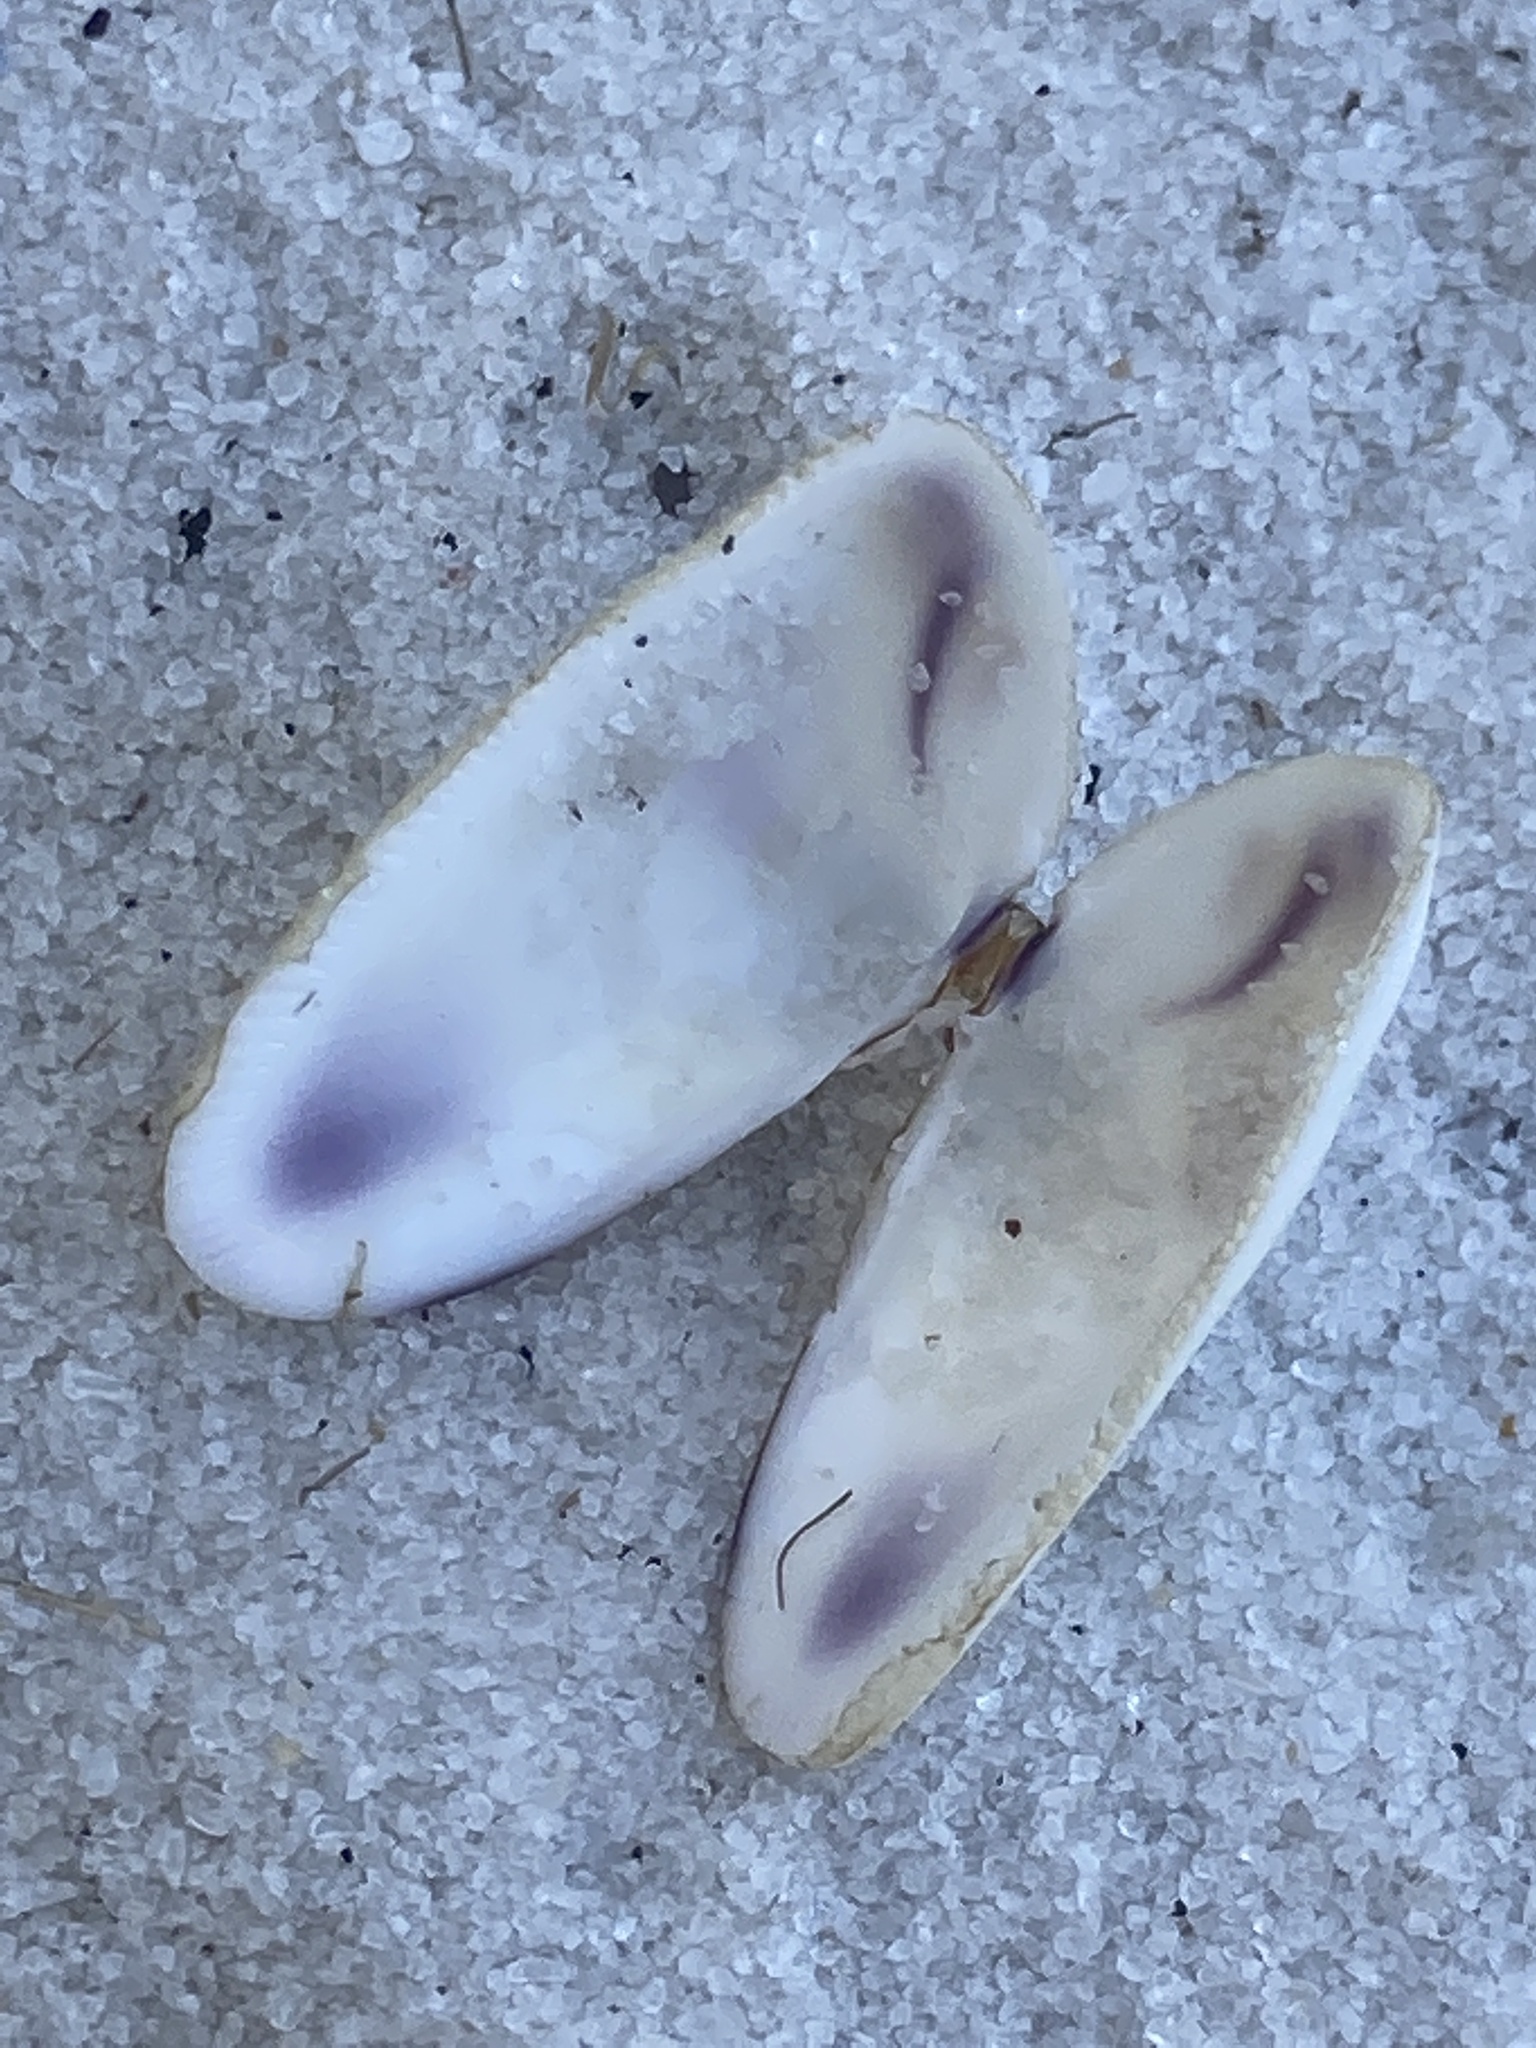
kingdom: Animalia
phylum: Mollusca
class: Bivalvia
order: Cardiida
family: Donacidae
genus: Donax
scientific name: Donax variabilis
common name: Butterfly shell
